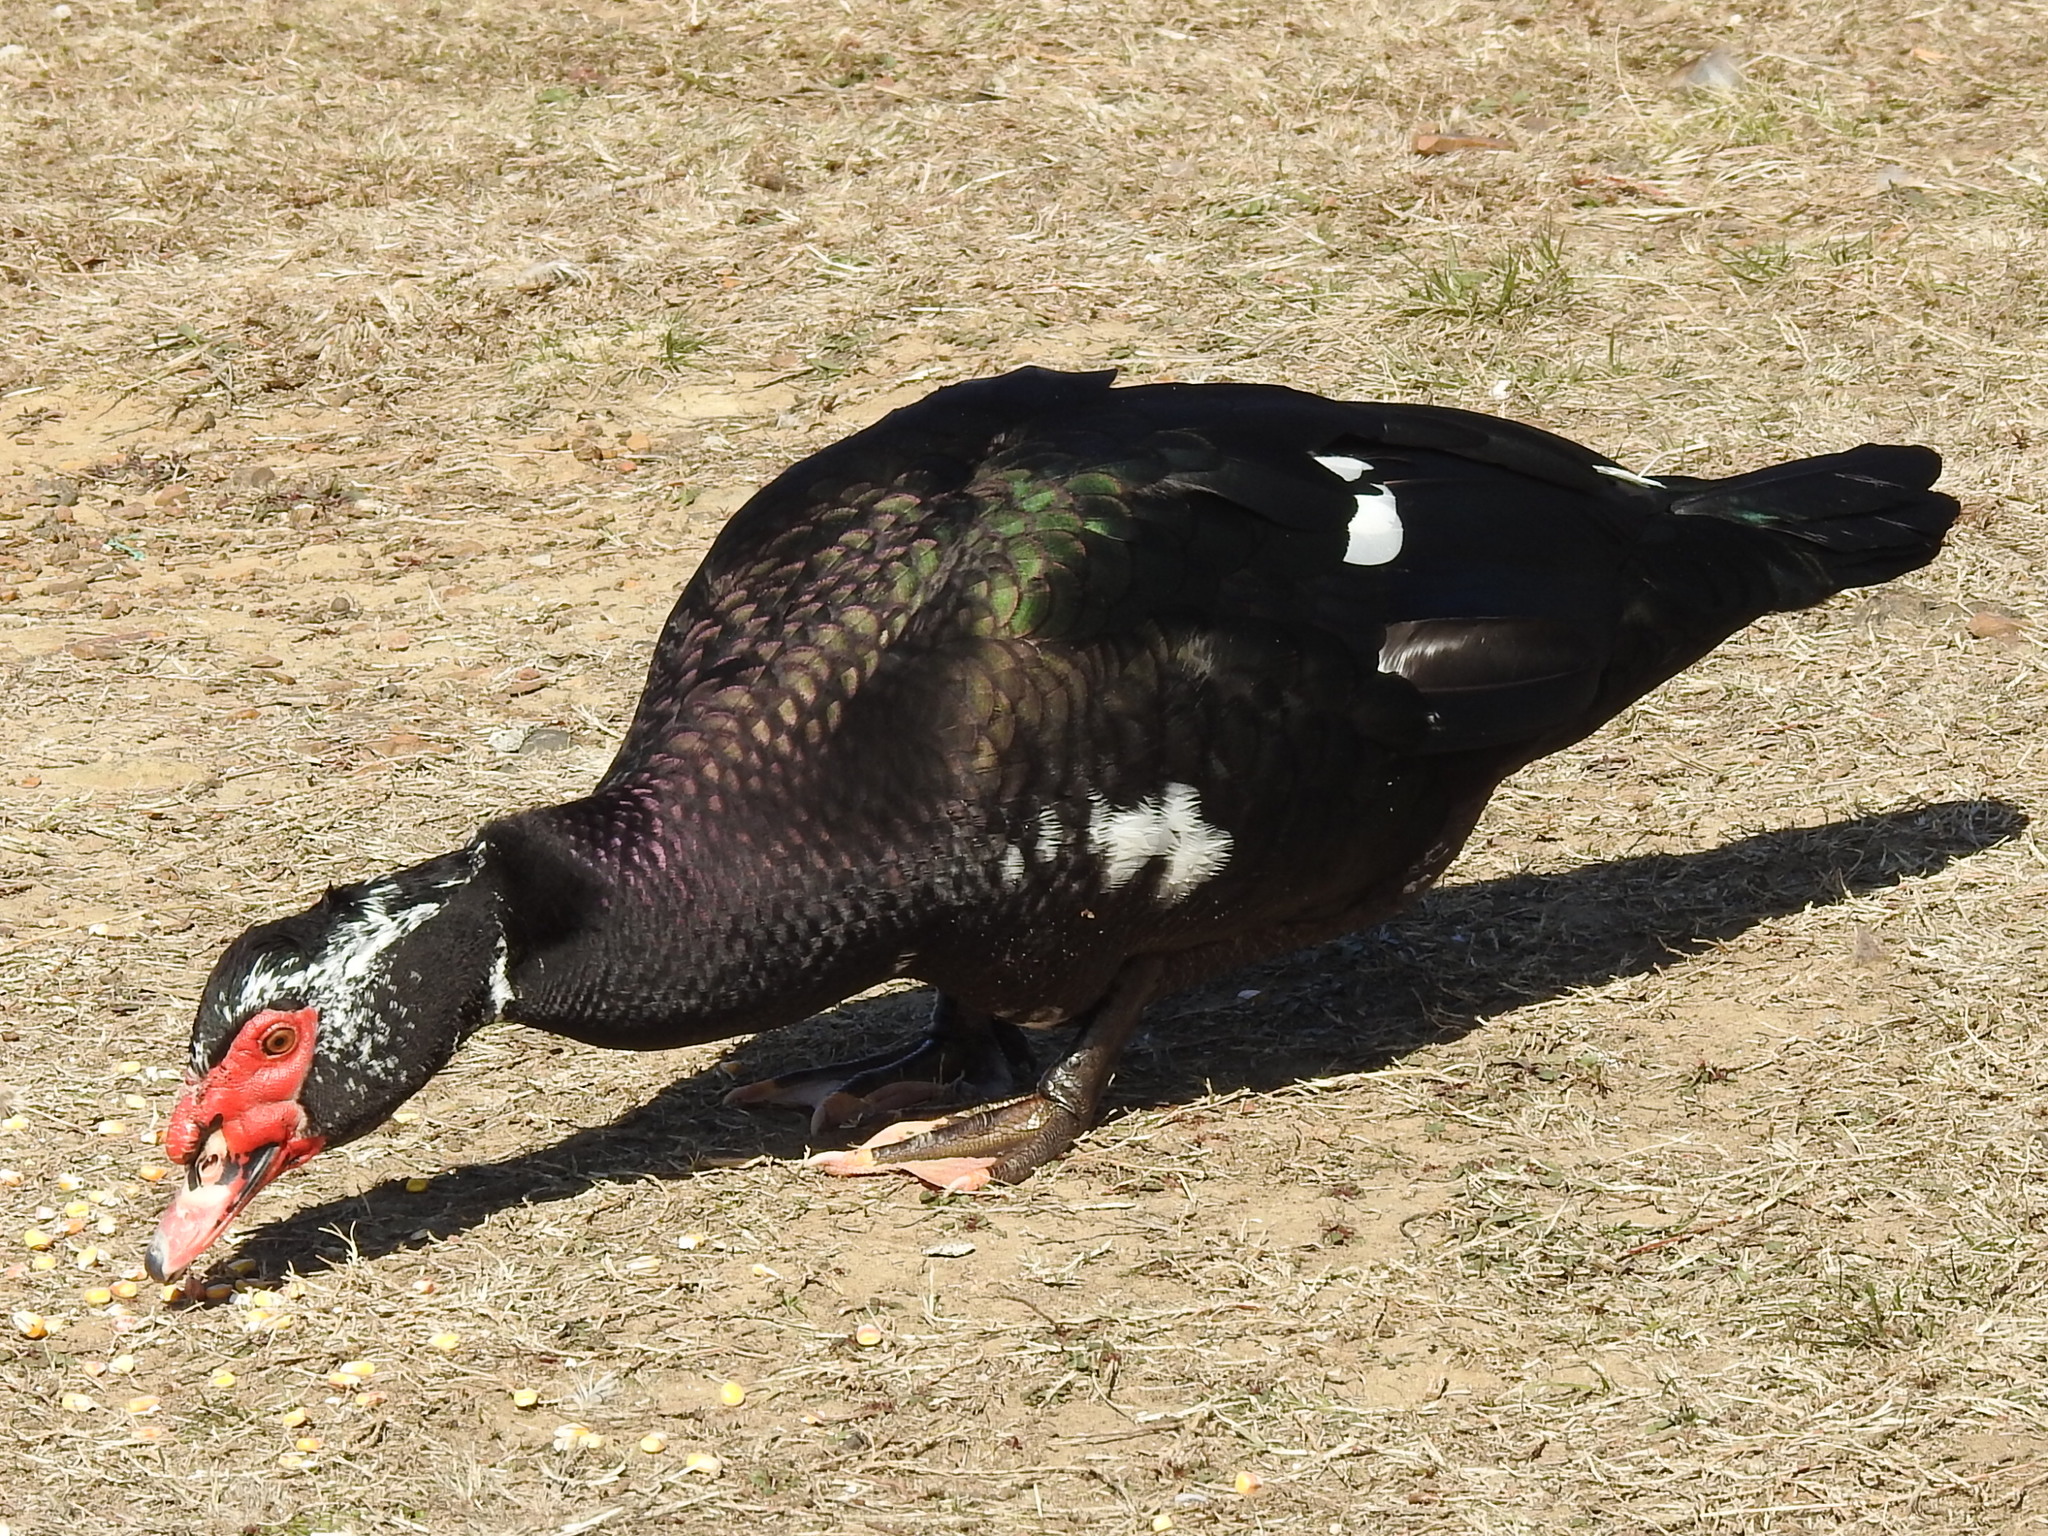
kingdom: Animalia
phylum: Chordata
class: Aves
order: Anseriformes
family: Anatidae
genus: Cairina
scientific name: Cairina moschata
